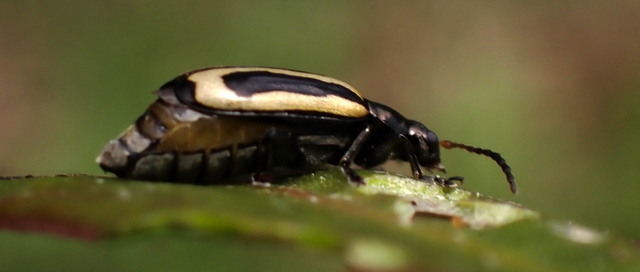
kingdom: Animalia
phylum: Arthropoda
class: Insecta
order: Coleoptera
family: Chrysomelidae
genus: Agasicles
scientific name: Agasicles hygrophila
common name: Alligatorweed flea beetle
